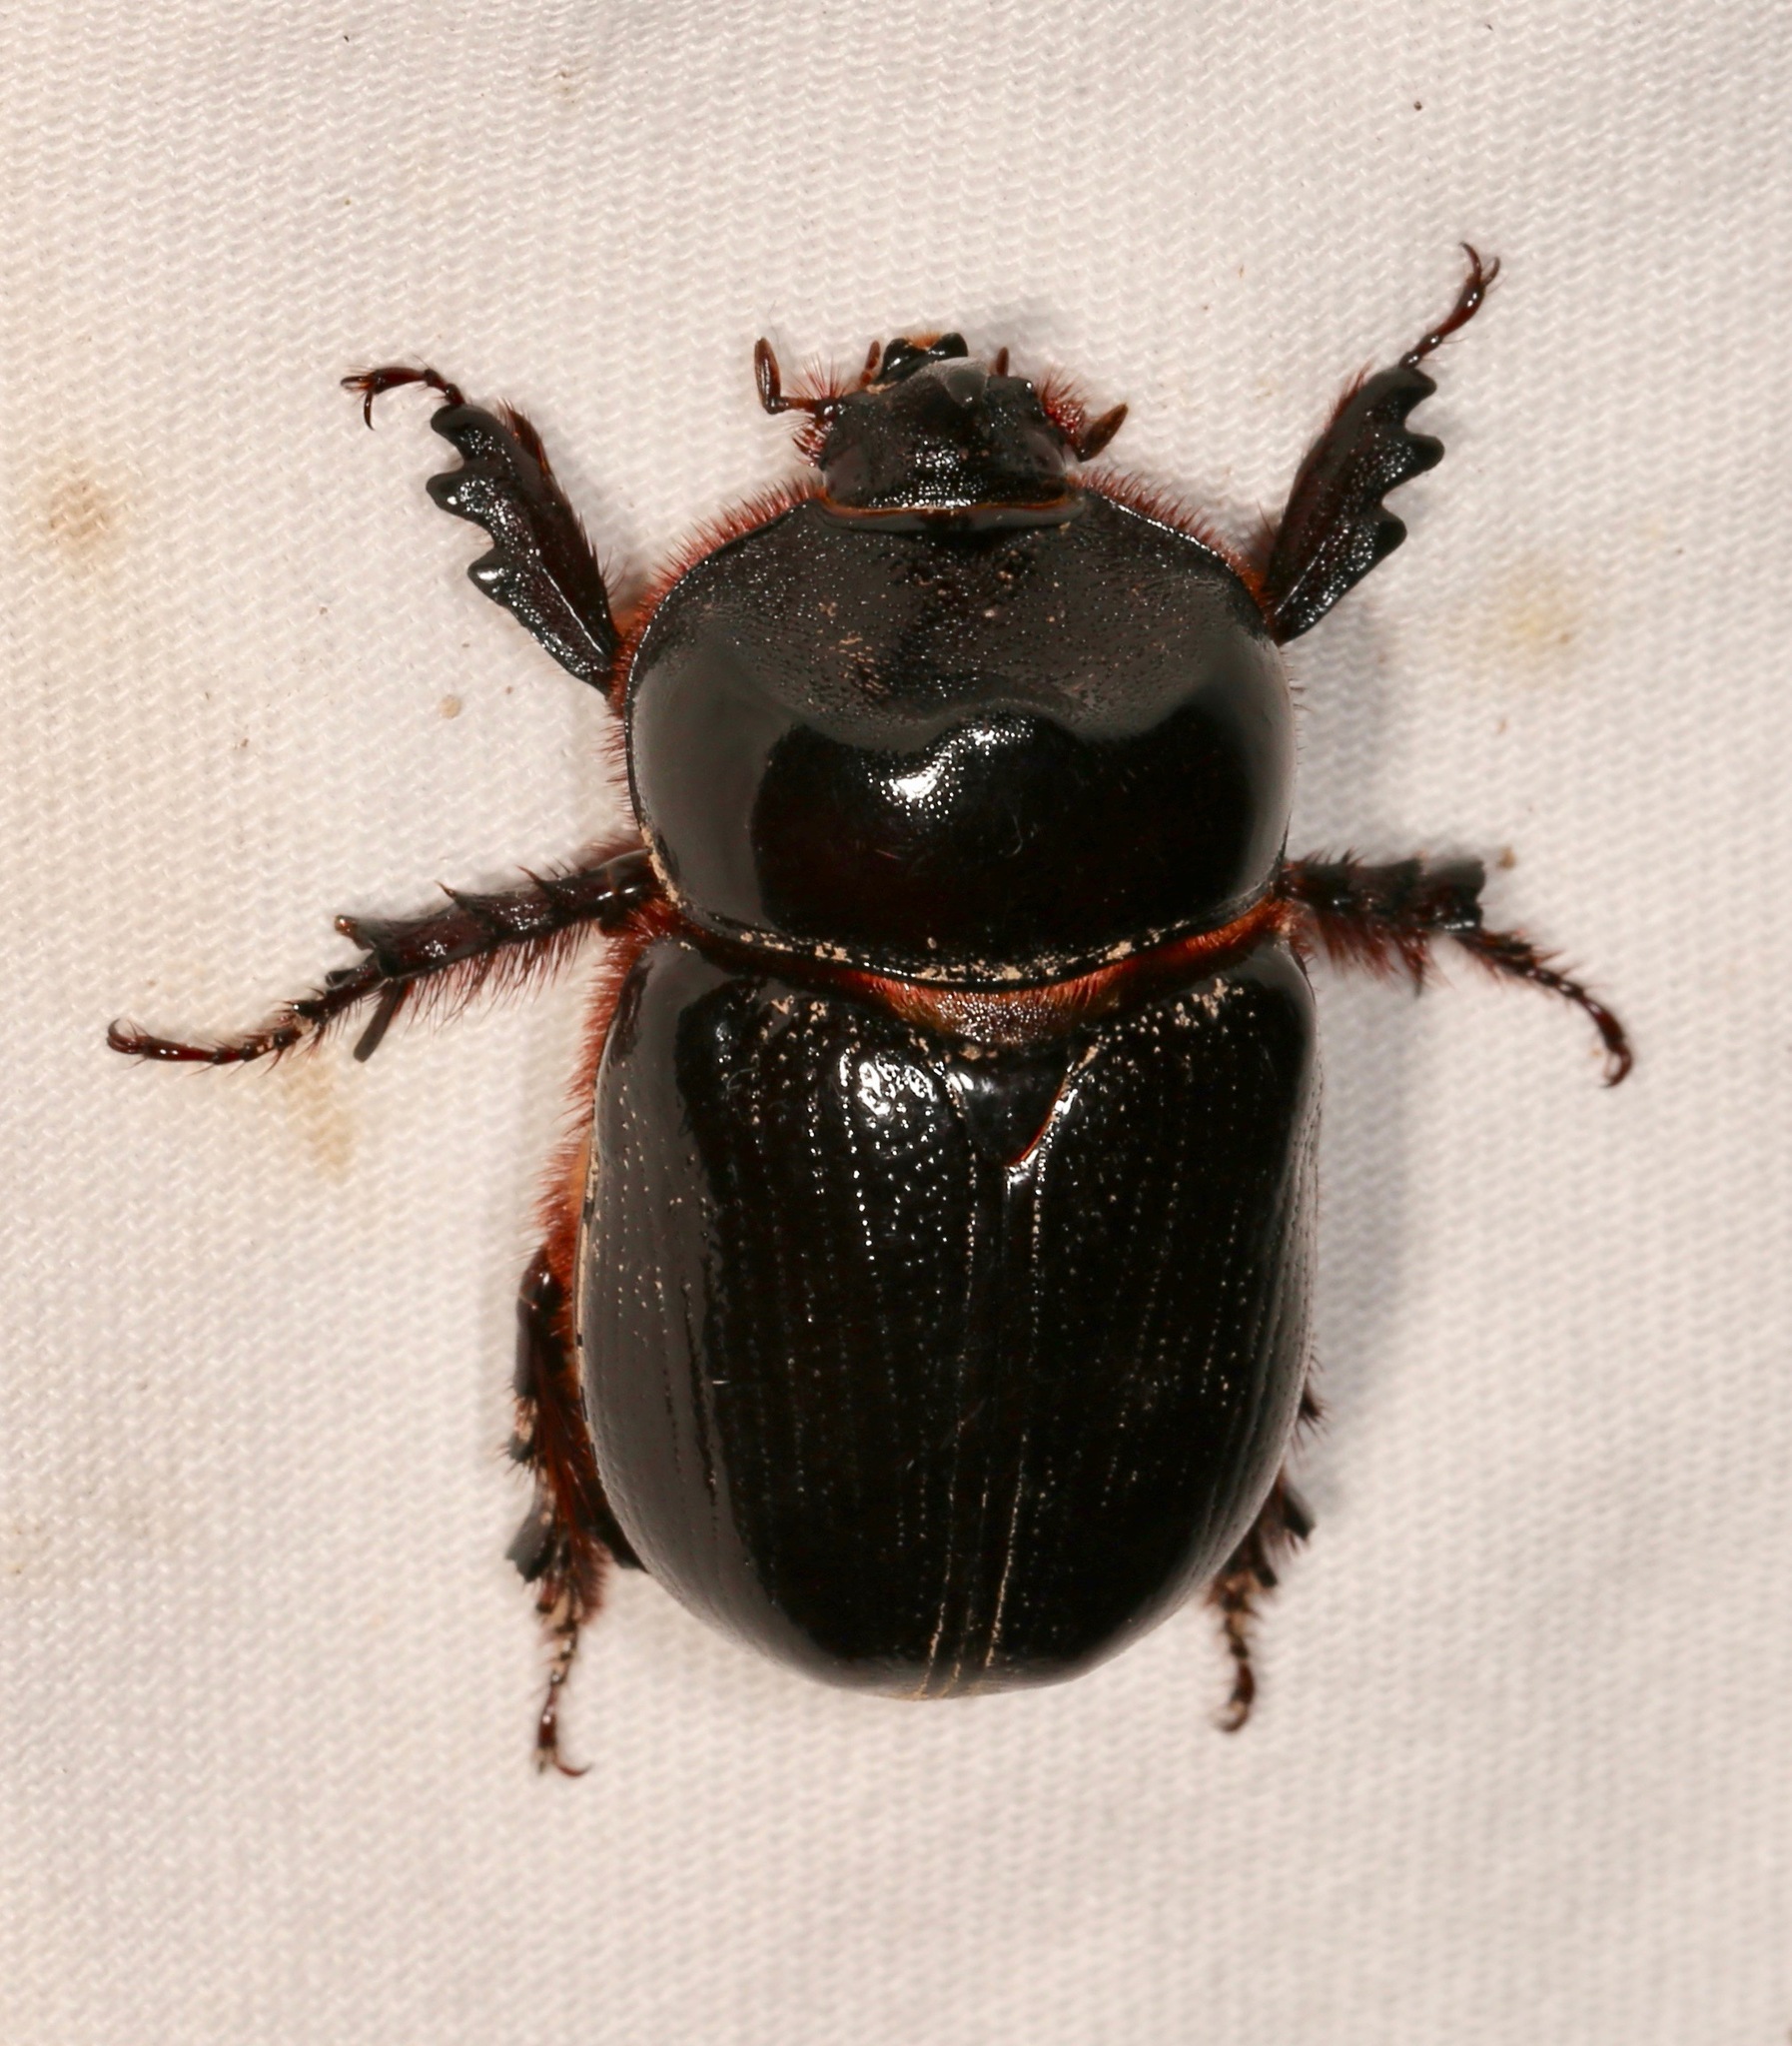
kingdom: Animalia
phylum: Arthropoda
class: Insecta
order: Coleoptera
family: Scarabaeidae
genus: Xyloryctes
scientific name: Xyloryctes thestalus
